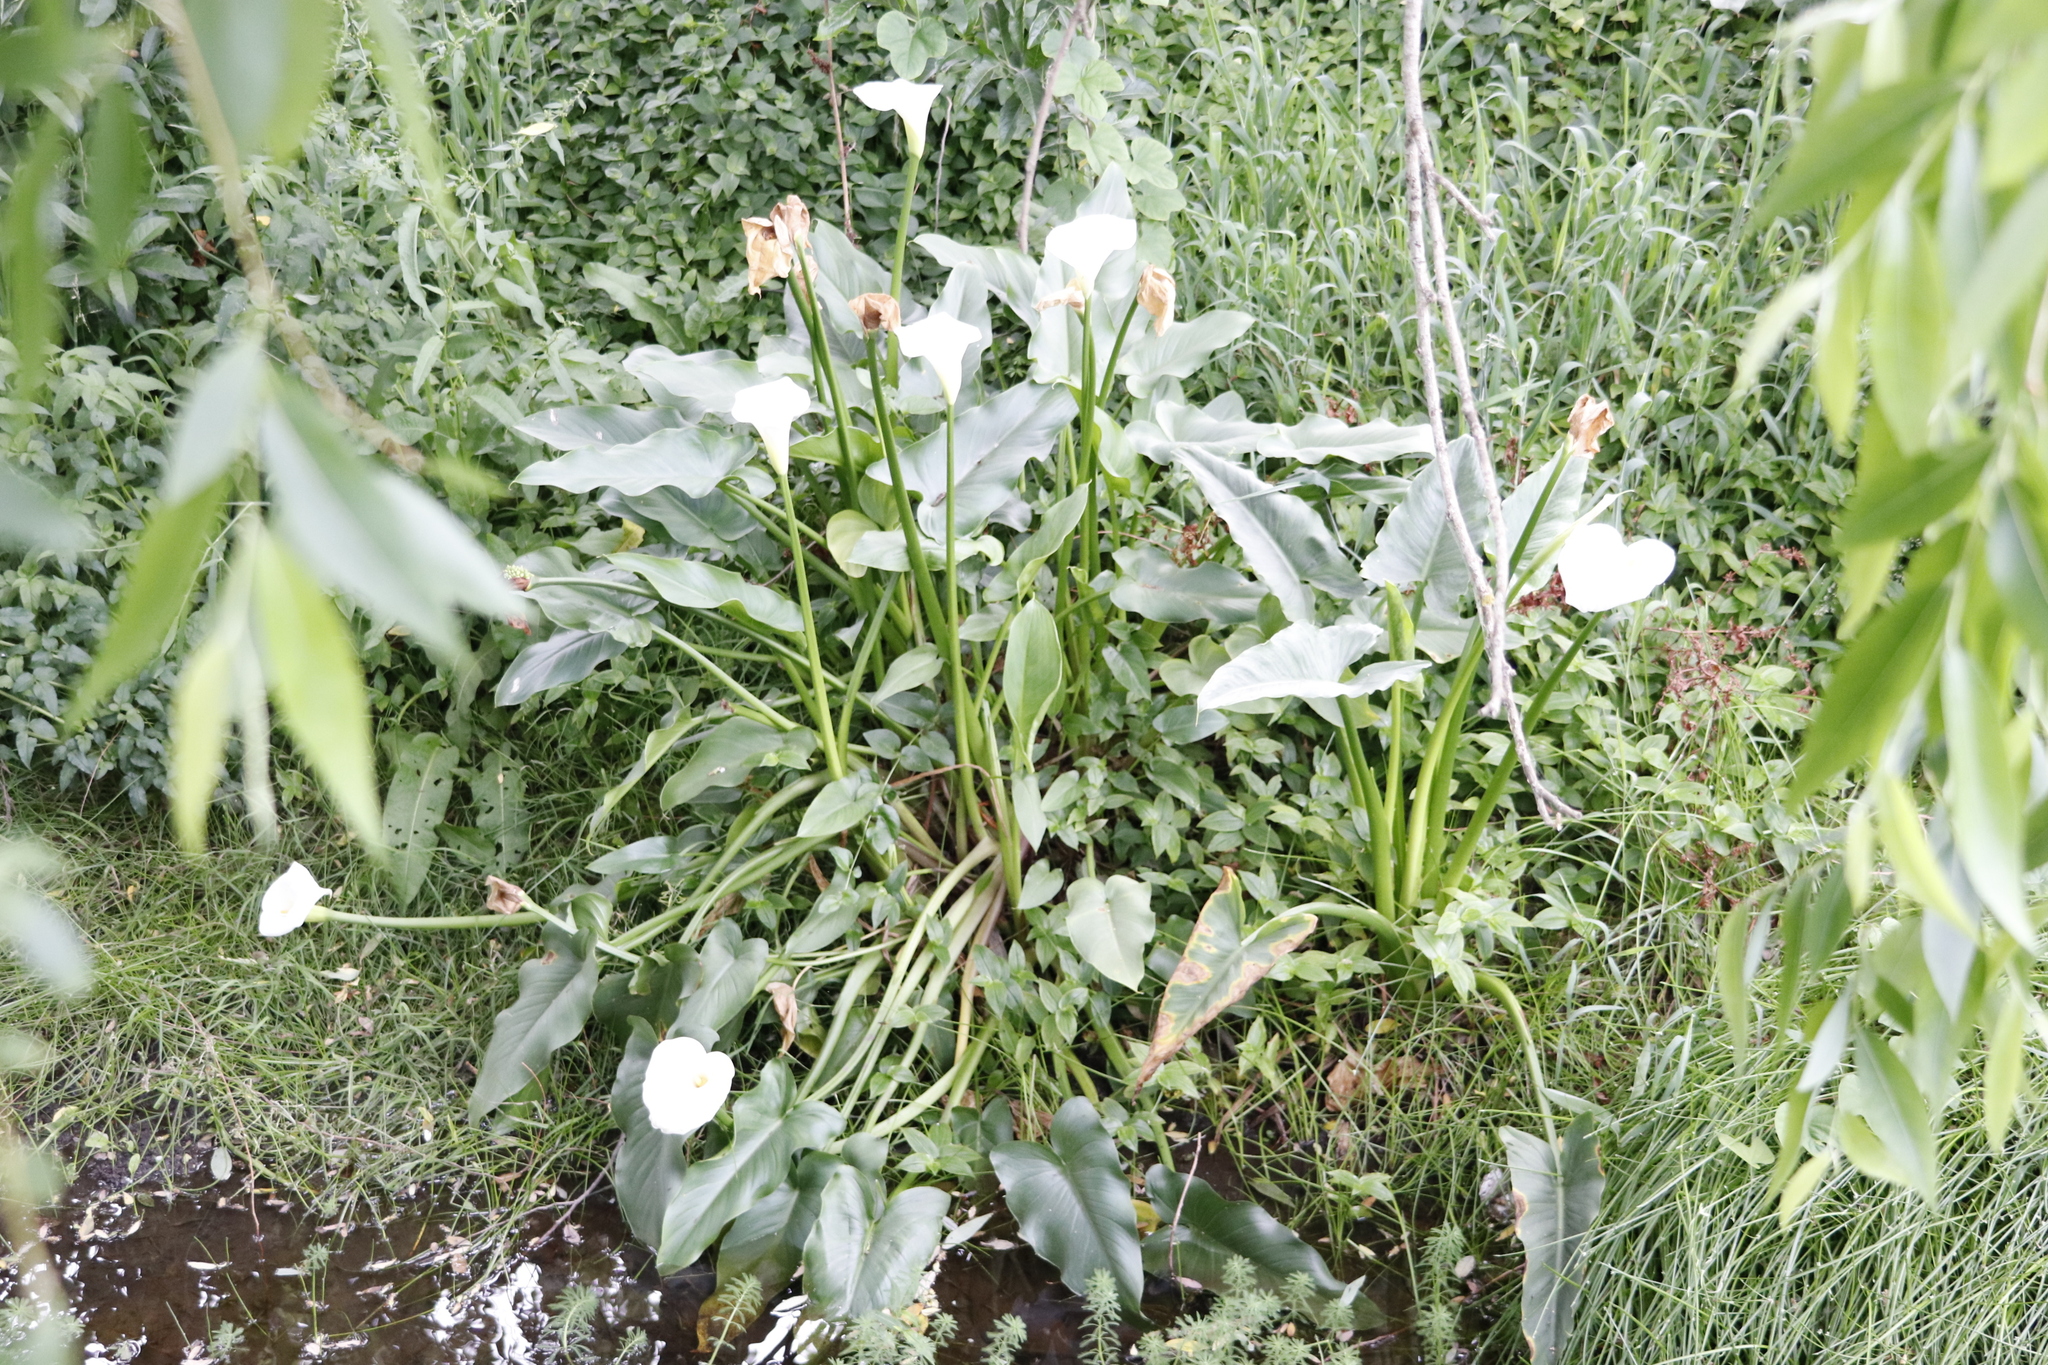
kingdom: Plantae
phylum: Tracheophyta
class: Liliopsida
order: Alismatales
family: Araceae
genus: Zantedeschia
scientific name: Zantedeschia aethiopica
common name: Altar-lily
